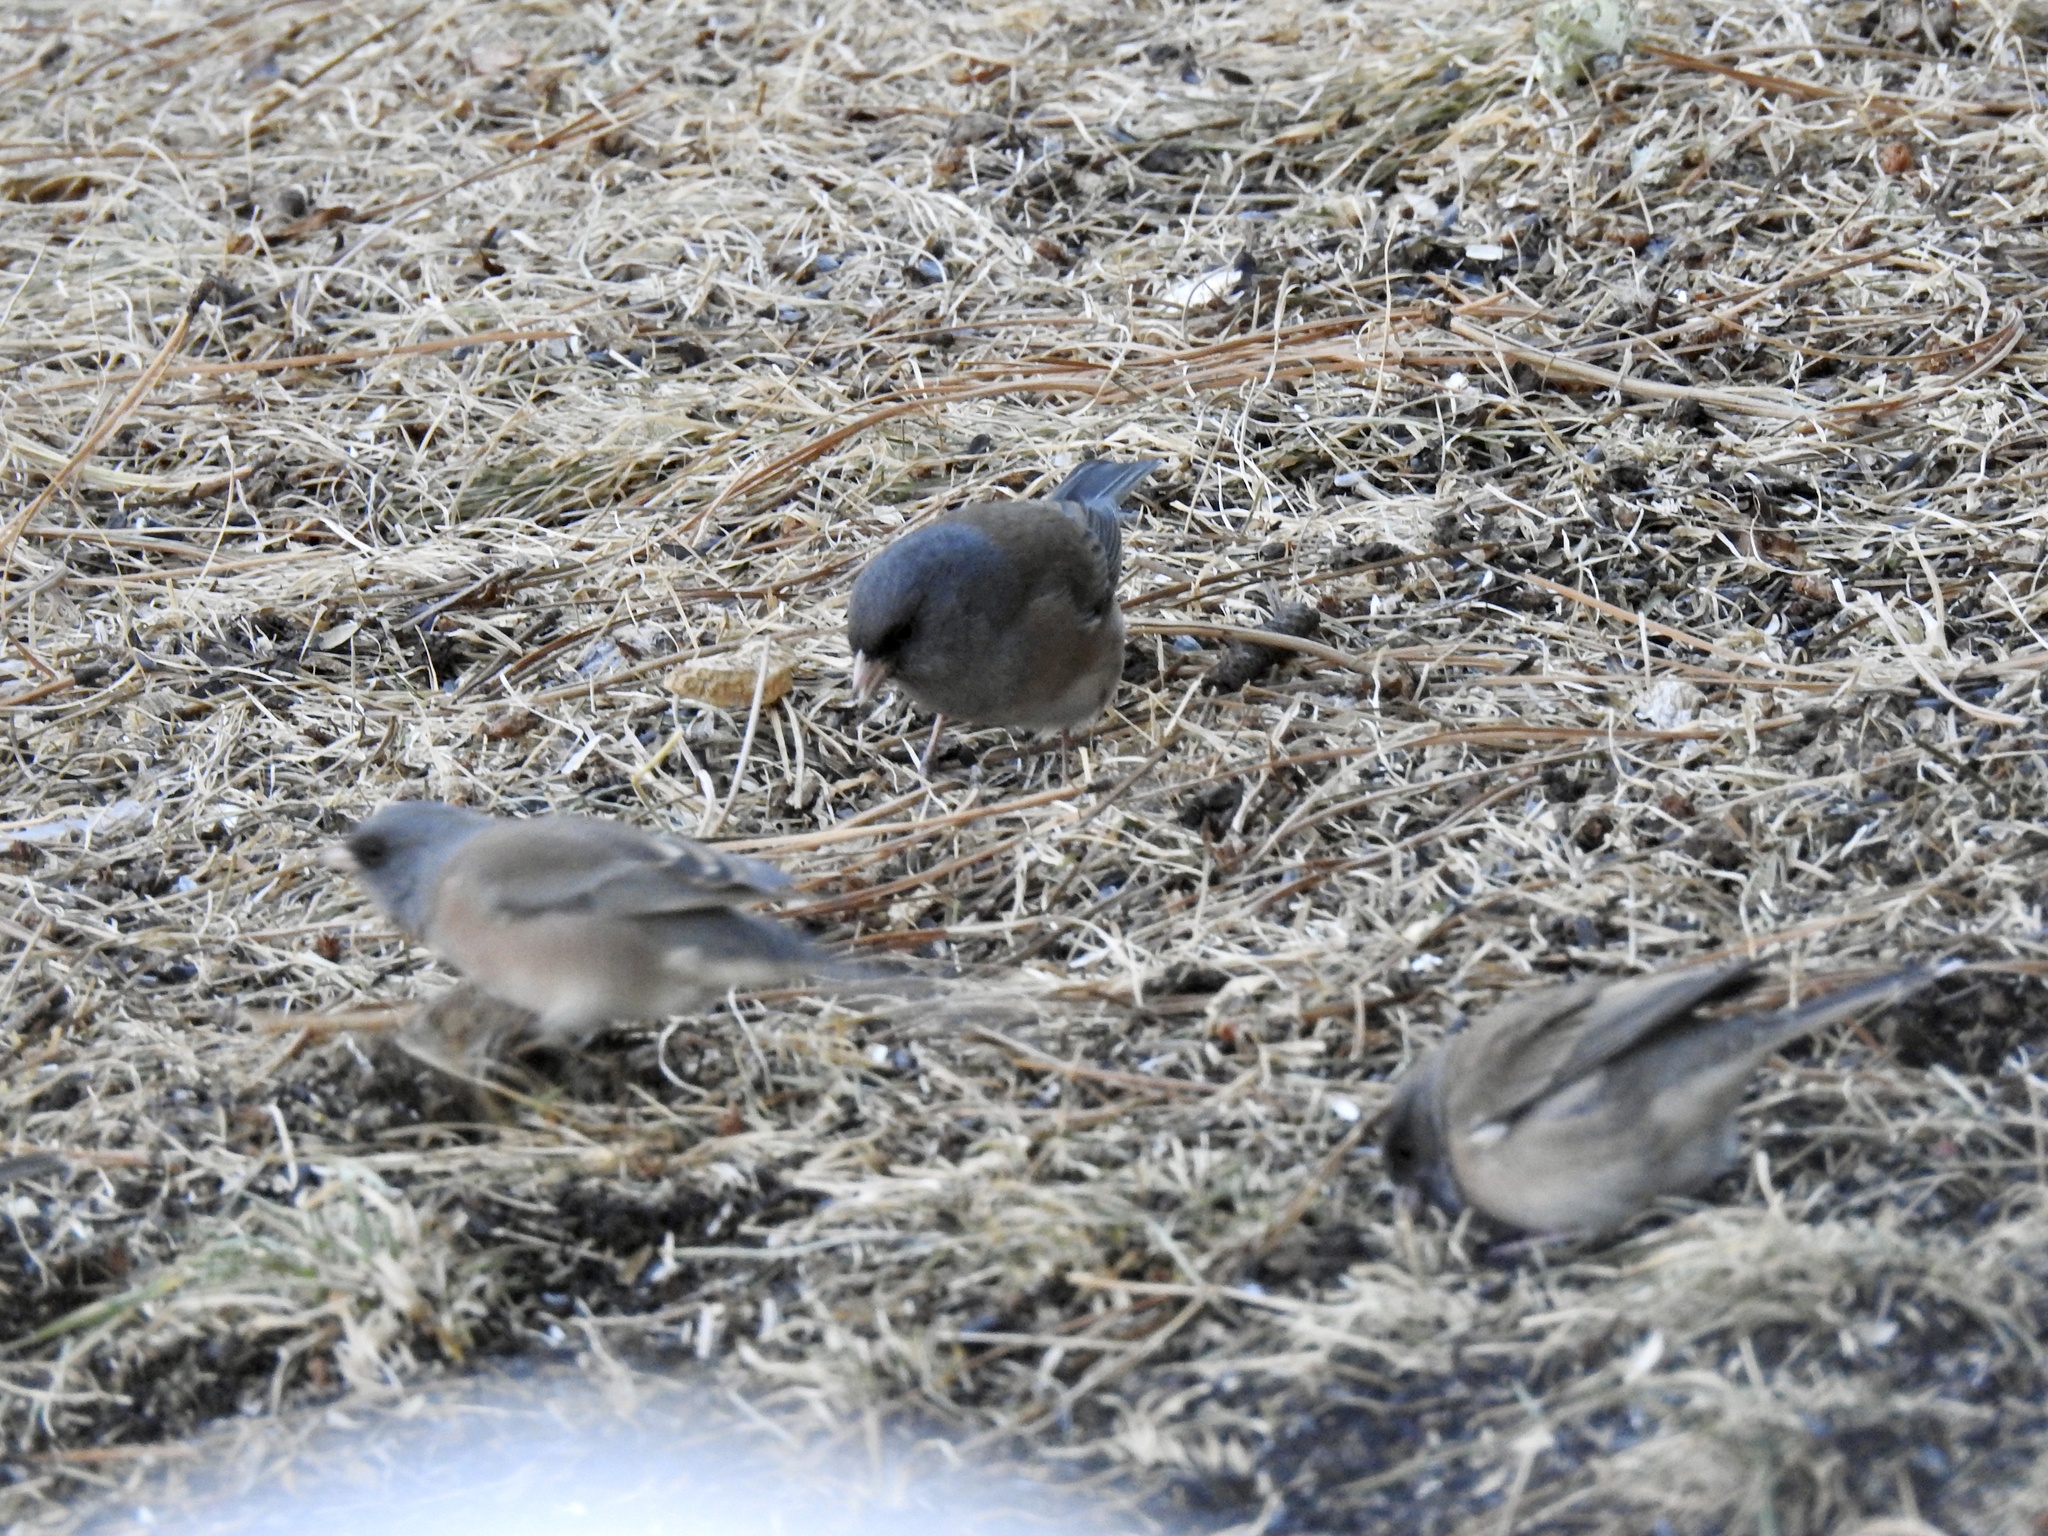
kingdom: Animalia
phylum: Chordata
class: Aves
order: Passeriformes
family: Passerellidae
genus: Junco
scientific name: Junco hyemalis
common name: Dark-eyed junco
